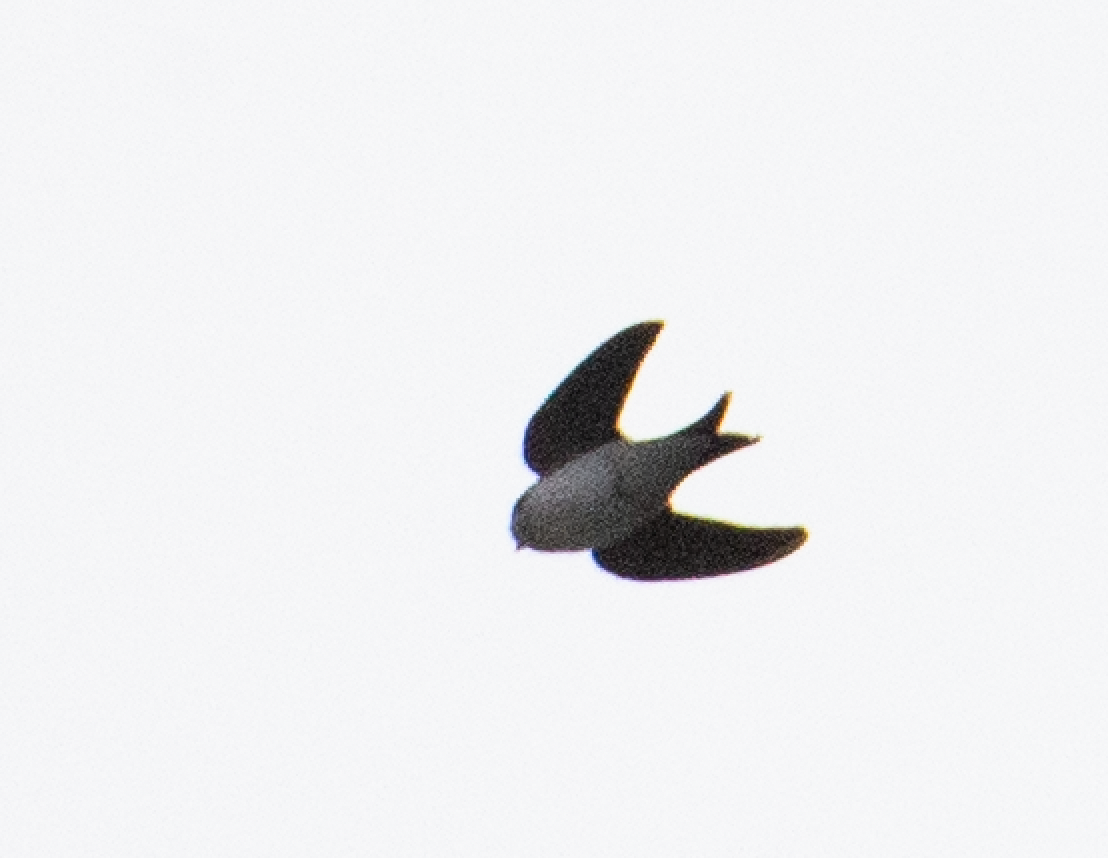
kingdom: Animalia
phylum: Chordata
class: Aves
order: Passeriformes
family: Hirundinidae
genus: Delichon
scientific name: Delichon urbicum
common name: Common house martin
